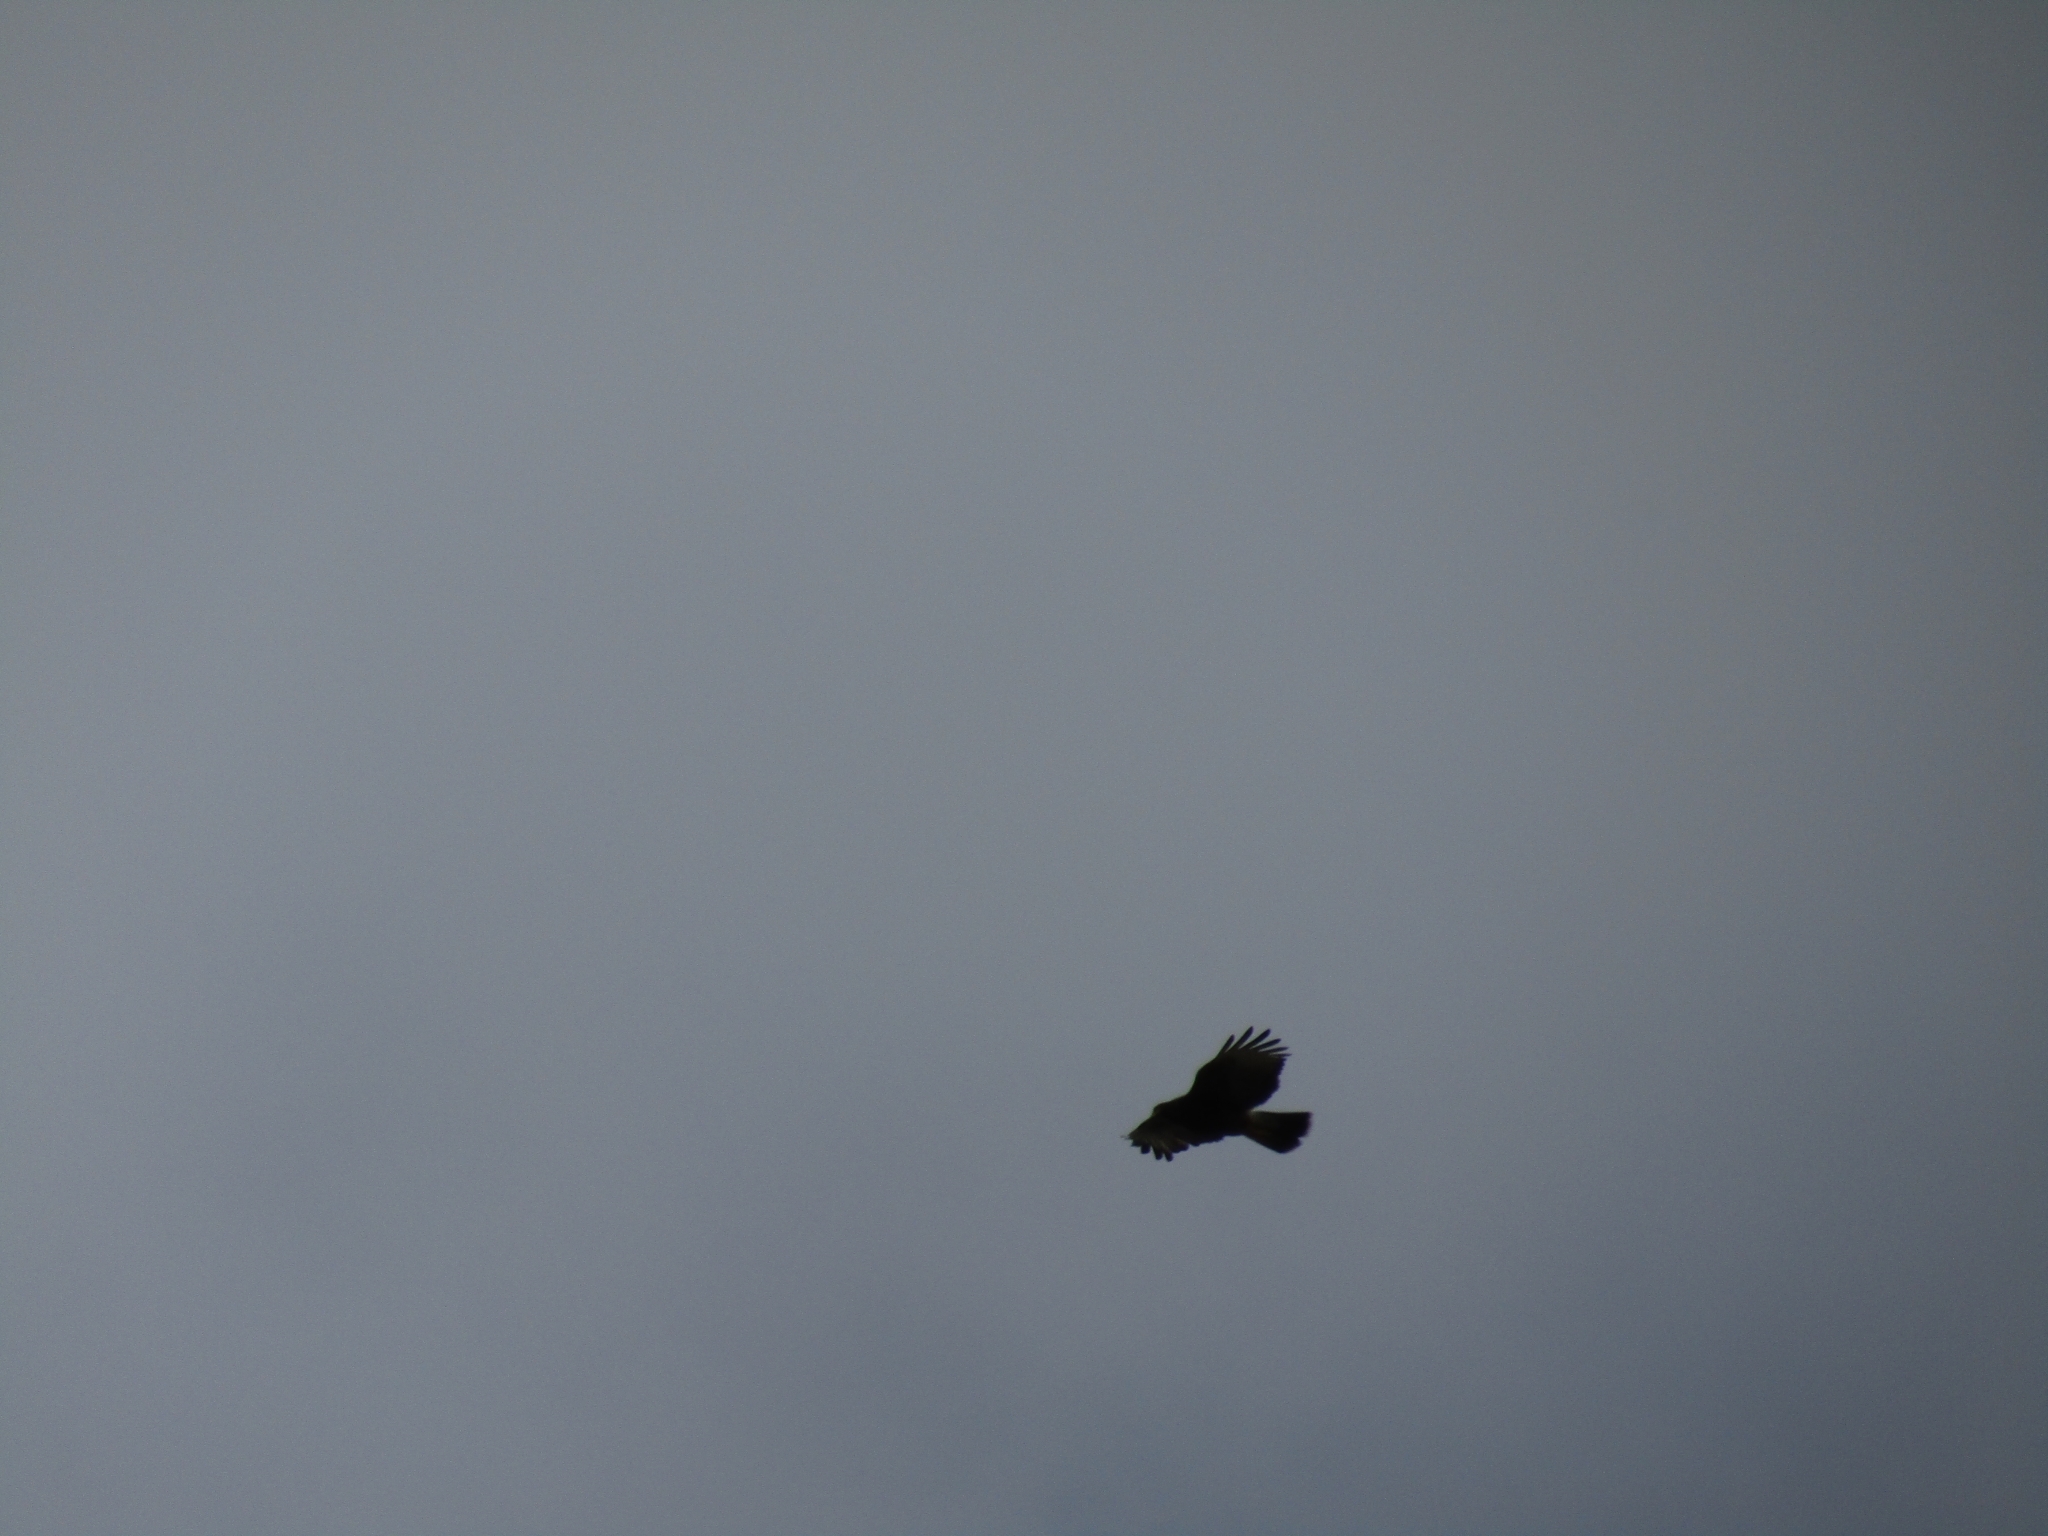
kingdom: Animalia
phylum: Chordata
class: Aves
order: Accipitriformes
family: Accipitridae
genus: Parabuteo
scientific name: Parabuteo unicinctus
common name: Harris's hawk
